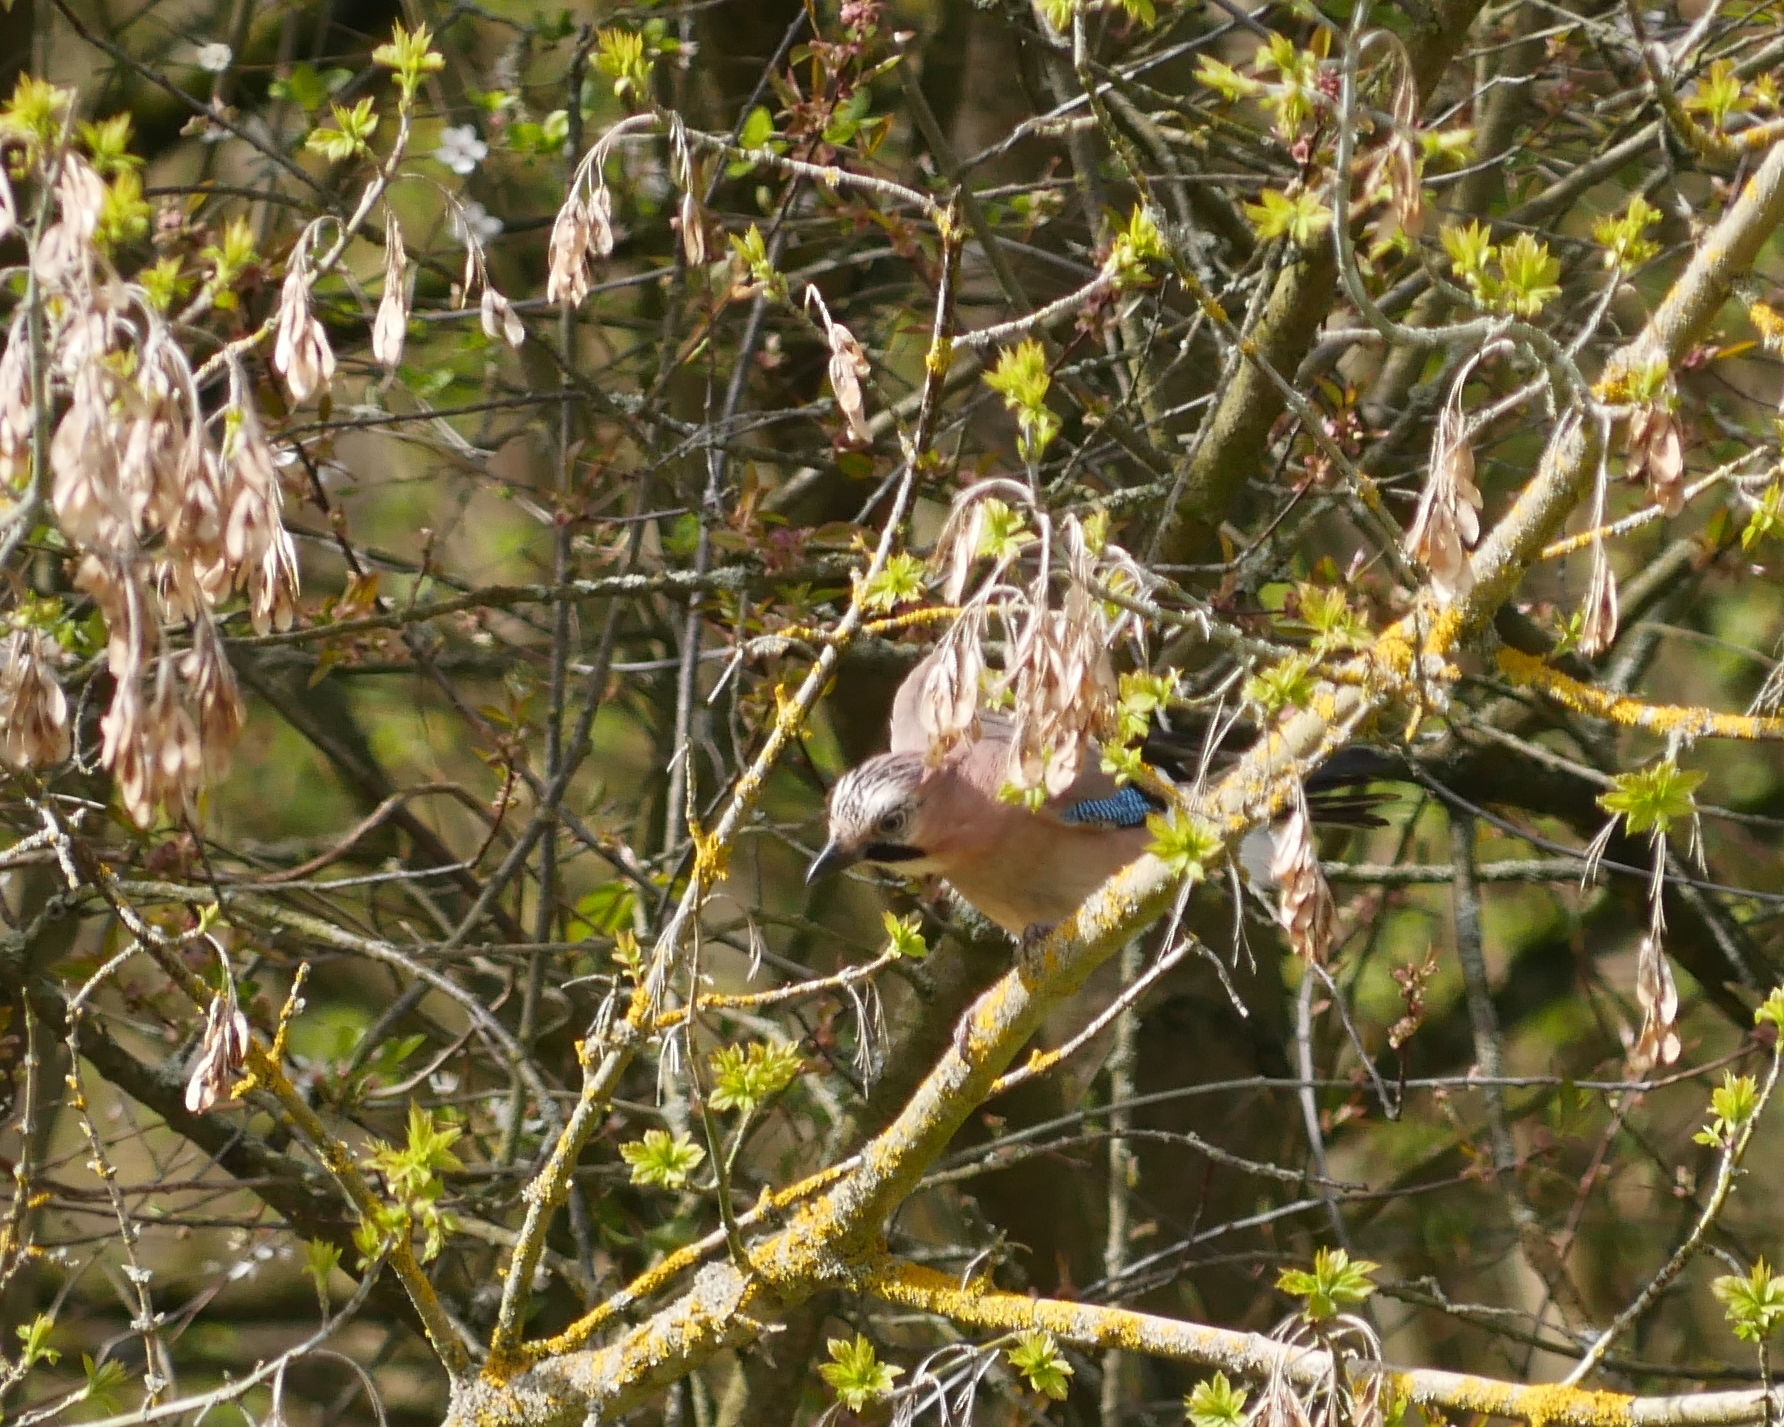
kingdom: Animalia
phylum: Chordata
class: Aves
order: Passeriformes
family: Corvidae
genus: Garrulus
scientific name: Garrulus glandarius
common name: Eurasian jay
